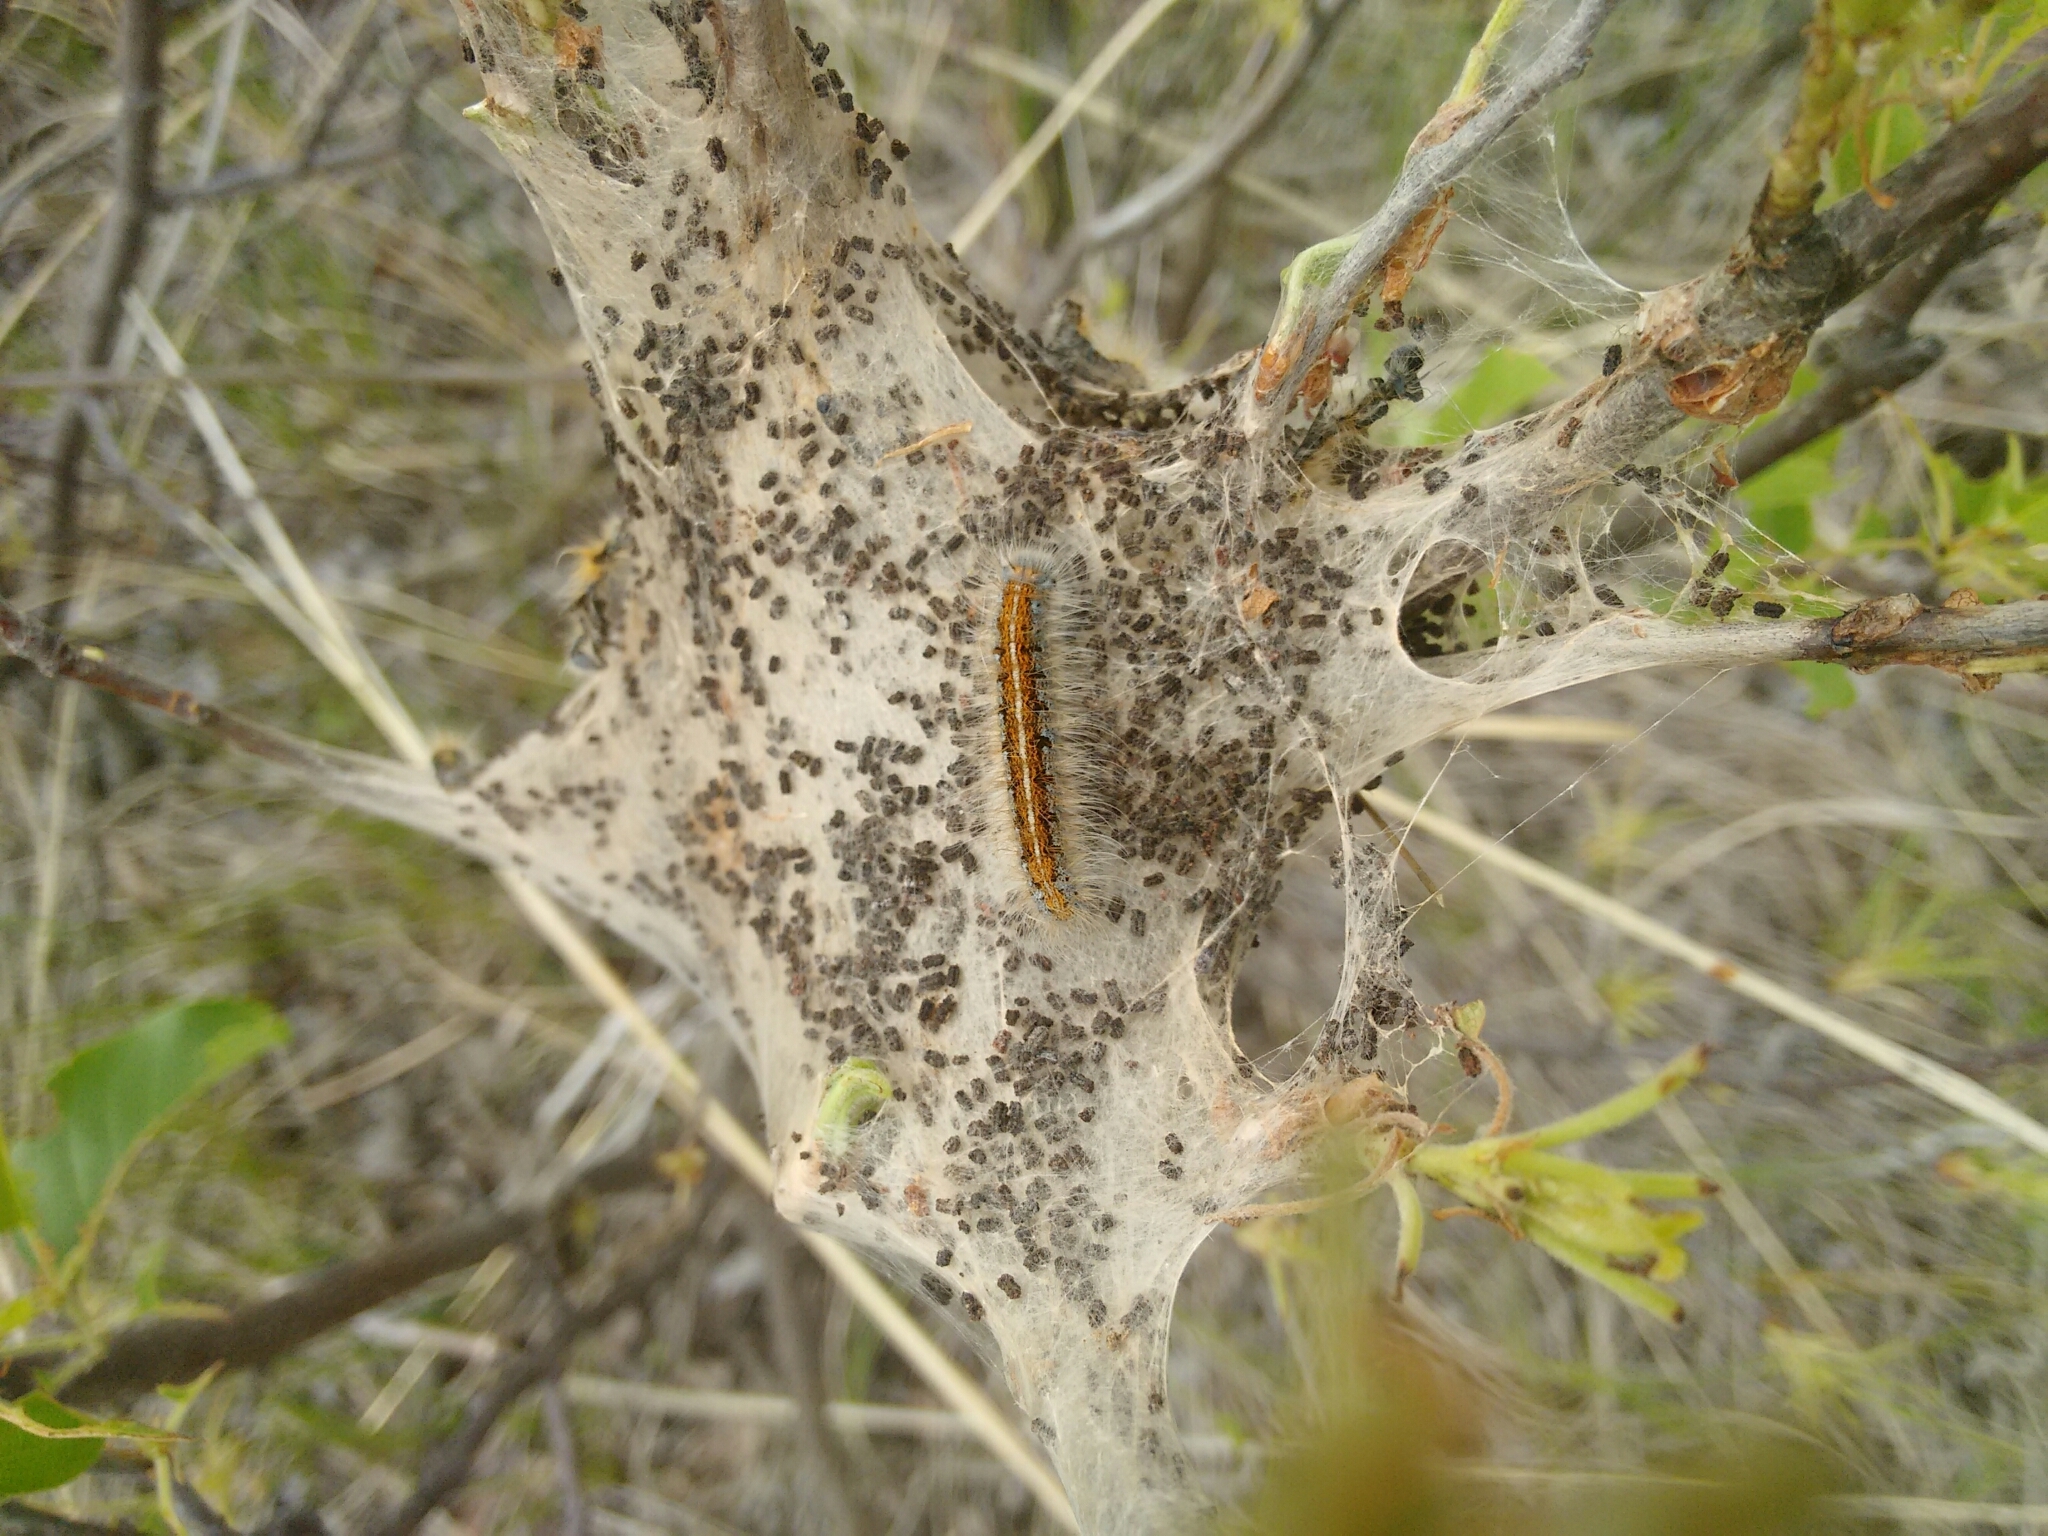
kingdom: Animalia
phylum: Arthropoda
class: Insecta
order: Lepidoptera
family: Lasiocampidae
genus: Malacosoma
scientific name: Malacosoma americana
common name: Eastern tent caterpillar moth
